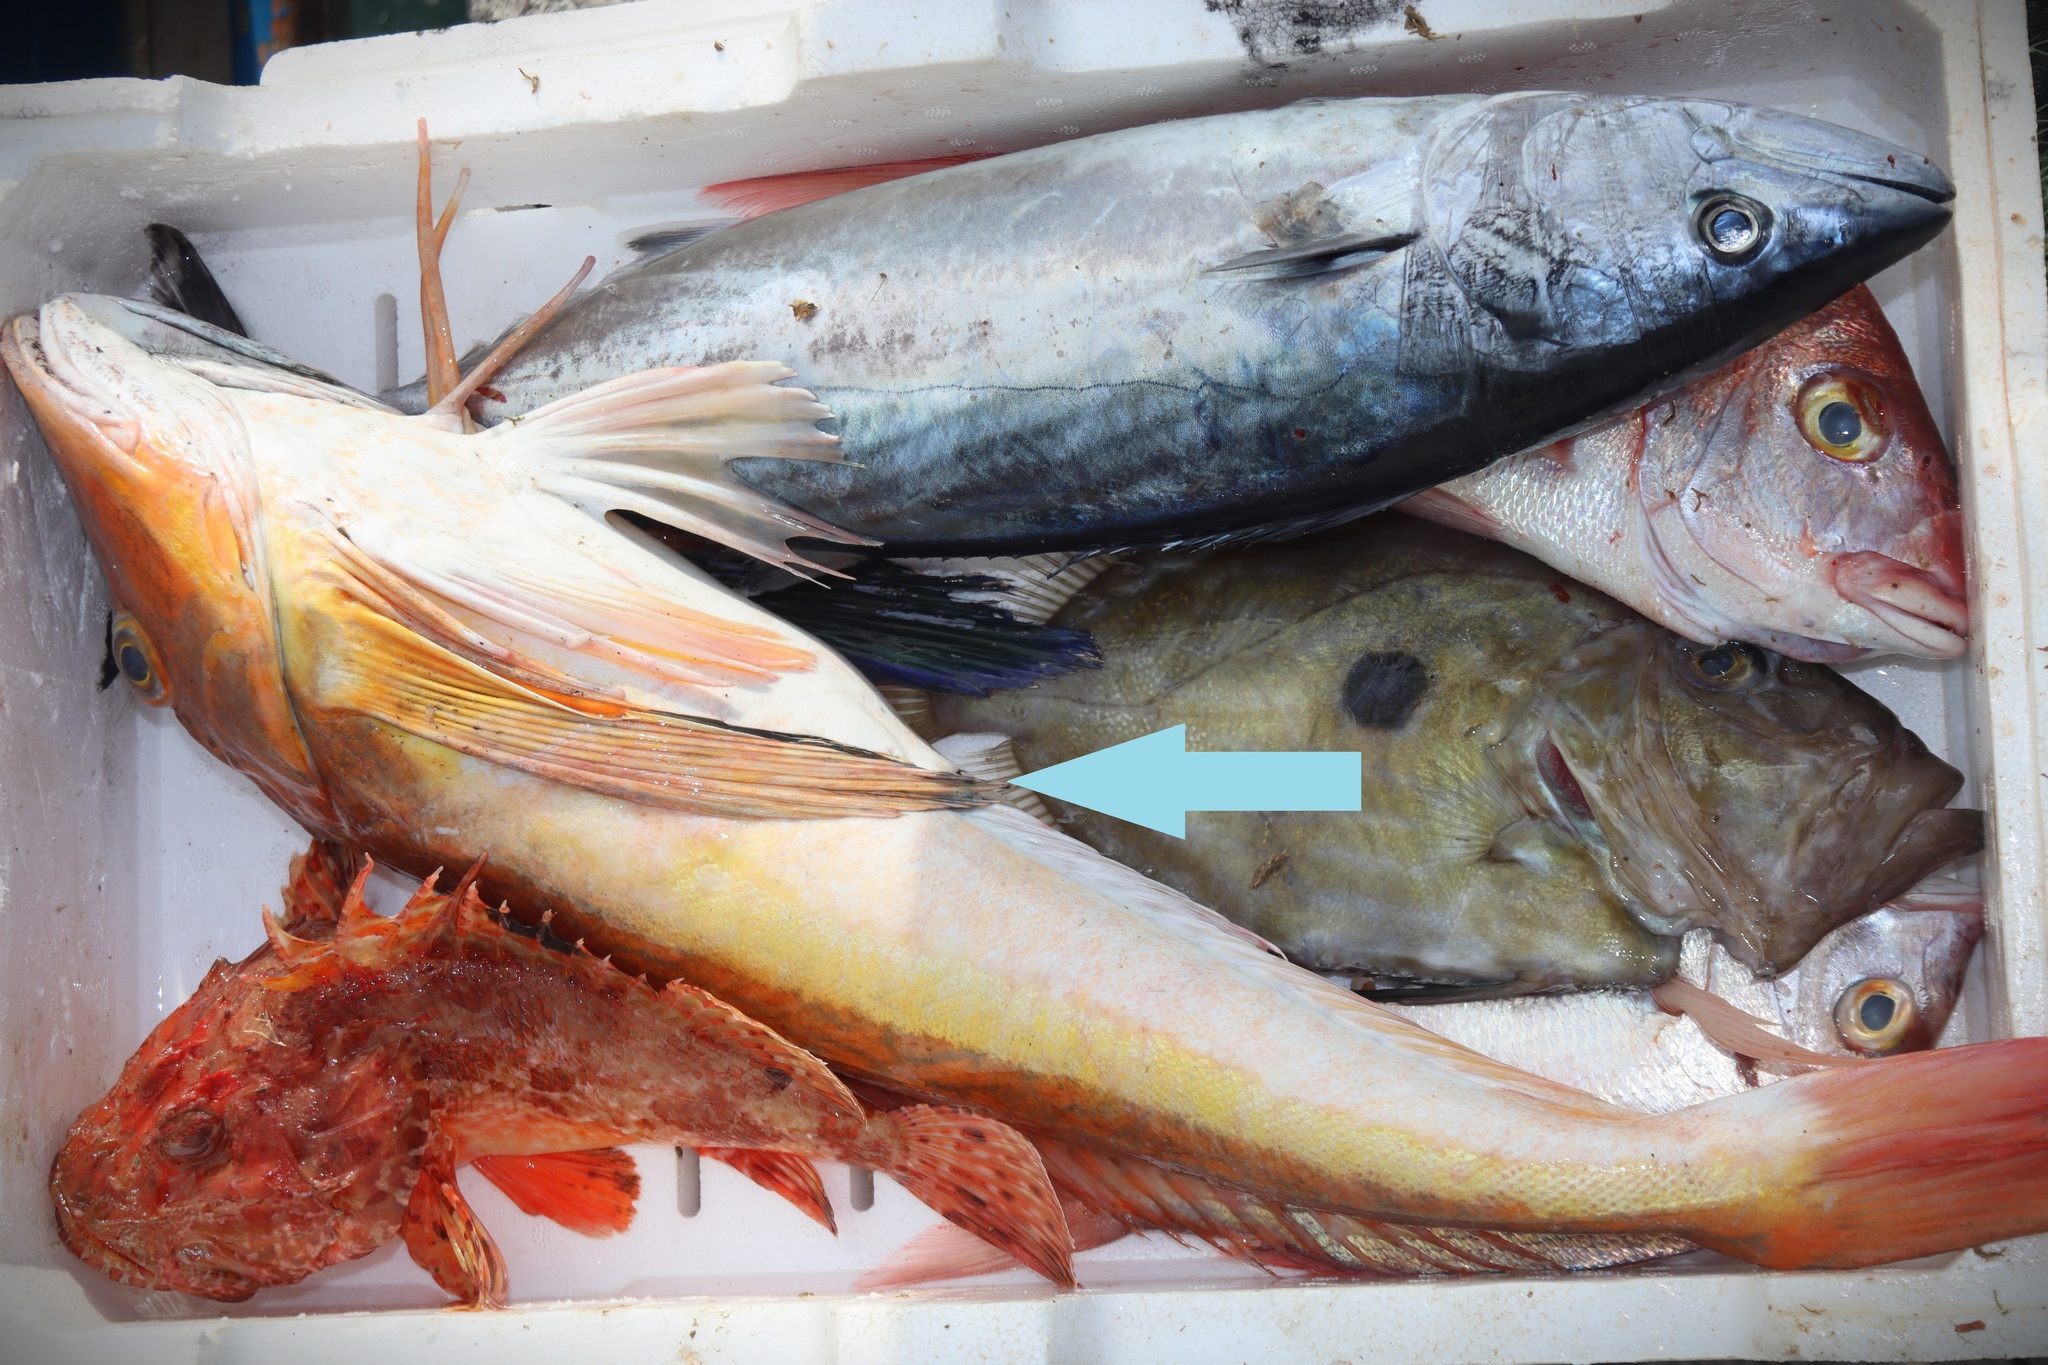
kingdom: Animalia
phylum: Chordata
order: Scorpaeniformes
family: Triglidae
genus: Chelidonichthys
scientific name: Chelidonichthys lucerna
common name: Tub gurnard
